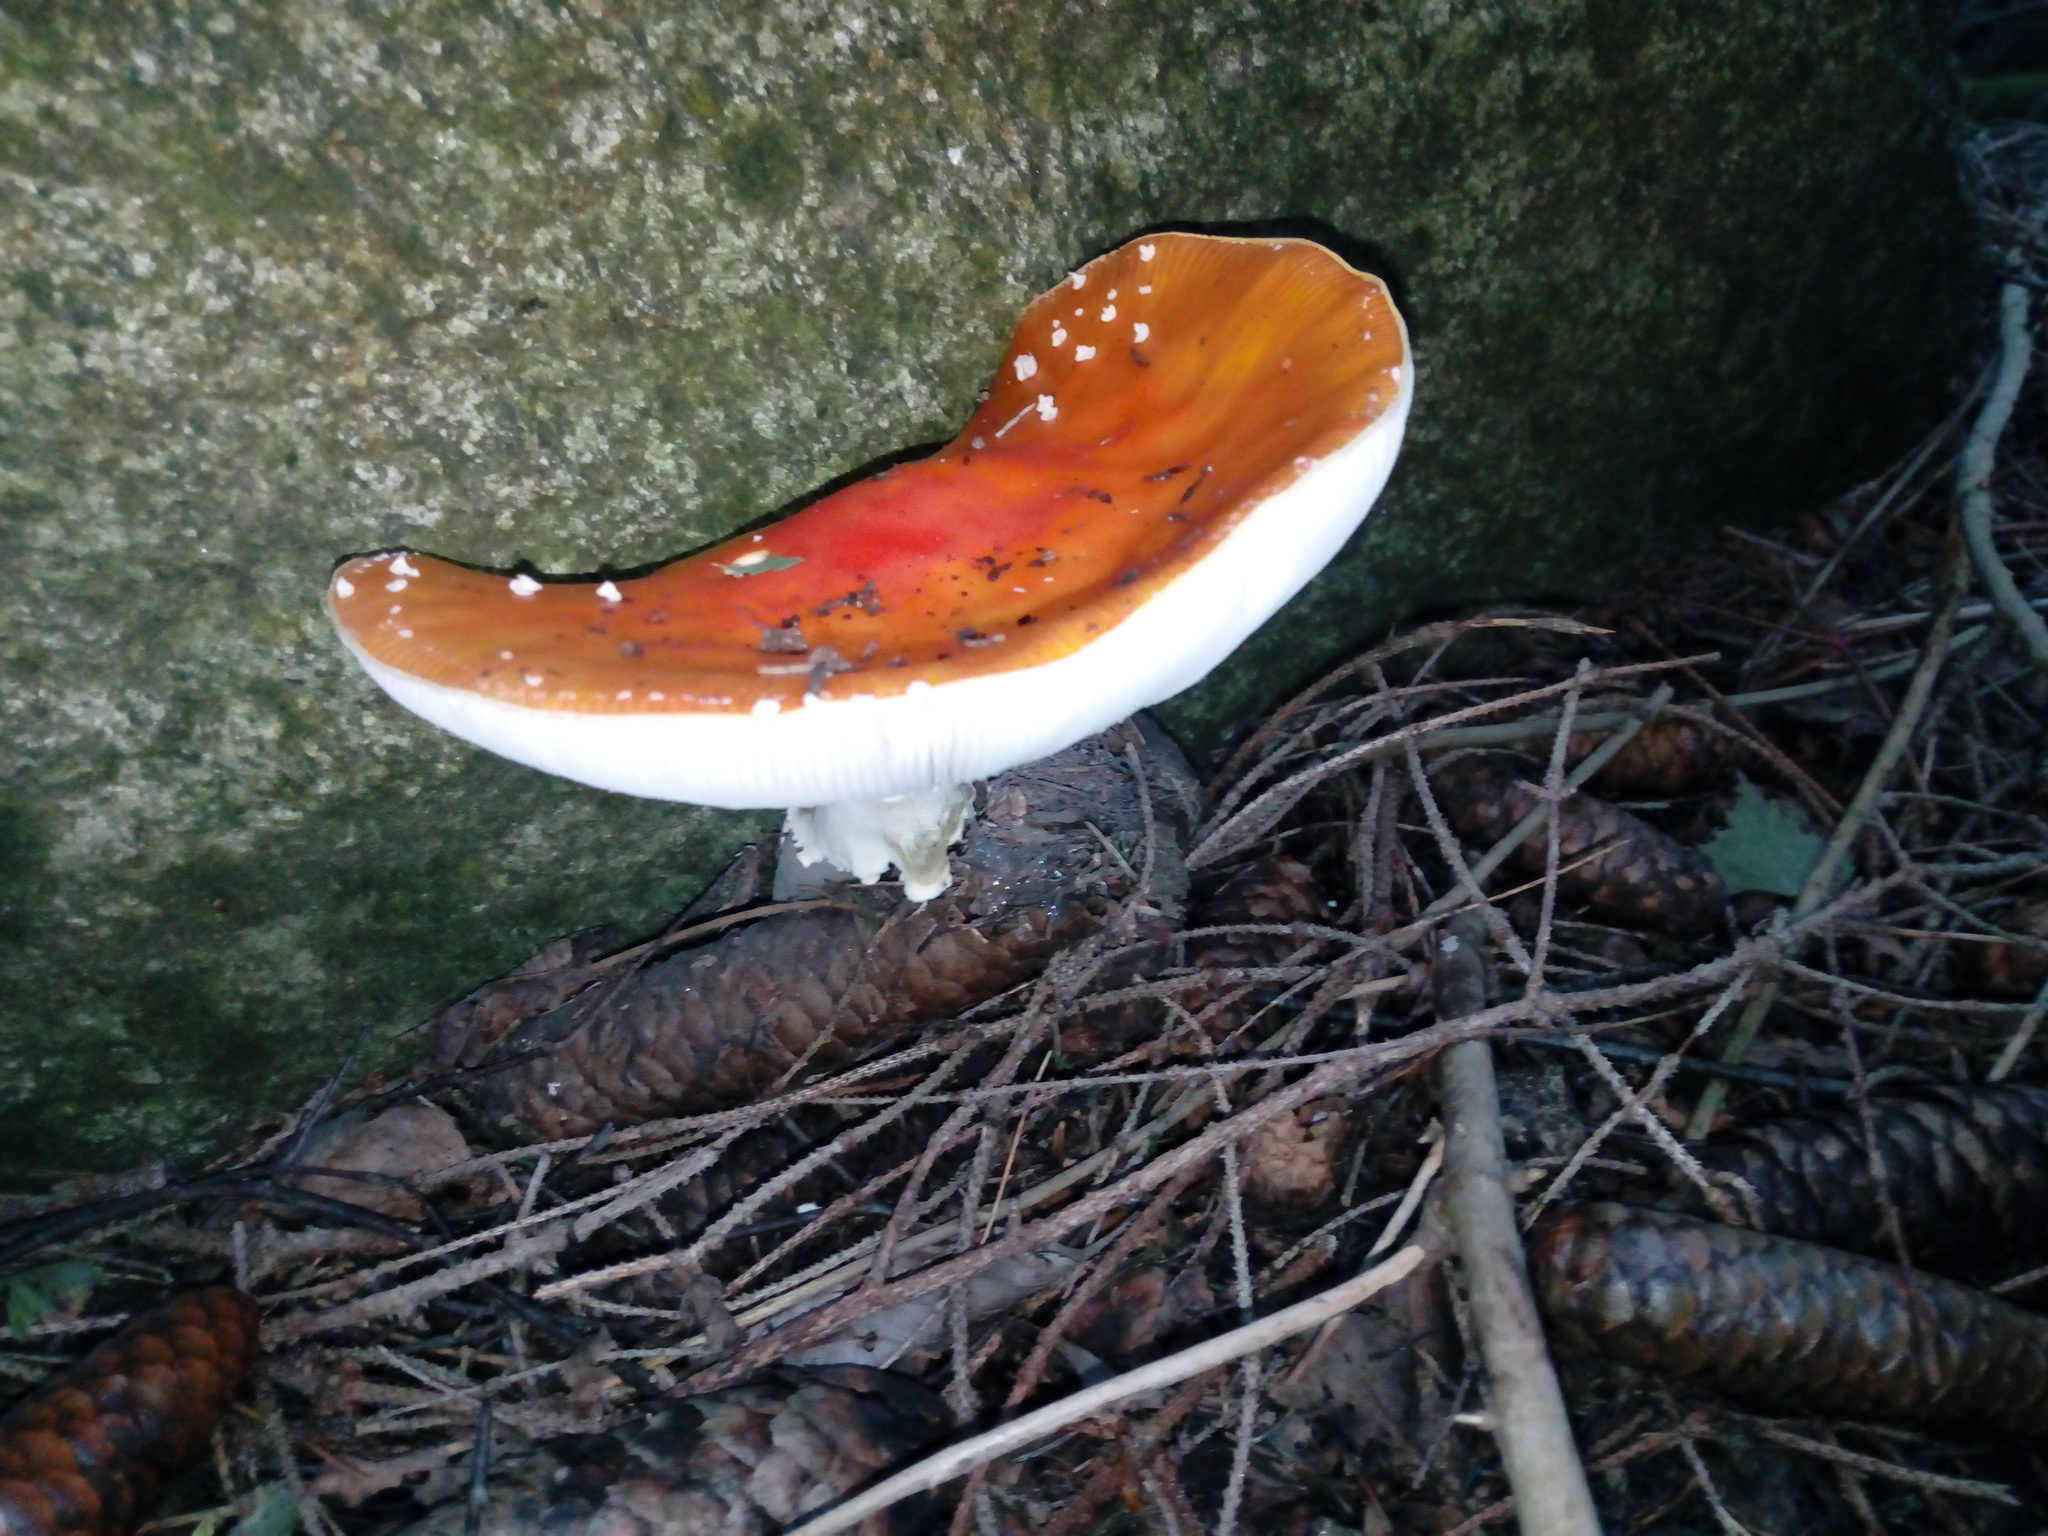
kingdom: Fungi
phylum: Basidiomycota
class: Agaricomycetes
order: Agaricales
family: Amanitaceae
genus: Amanita
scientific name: Amanita muscaria
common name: Fly agaric
